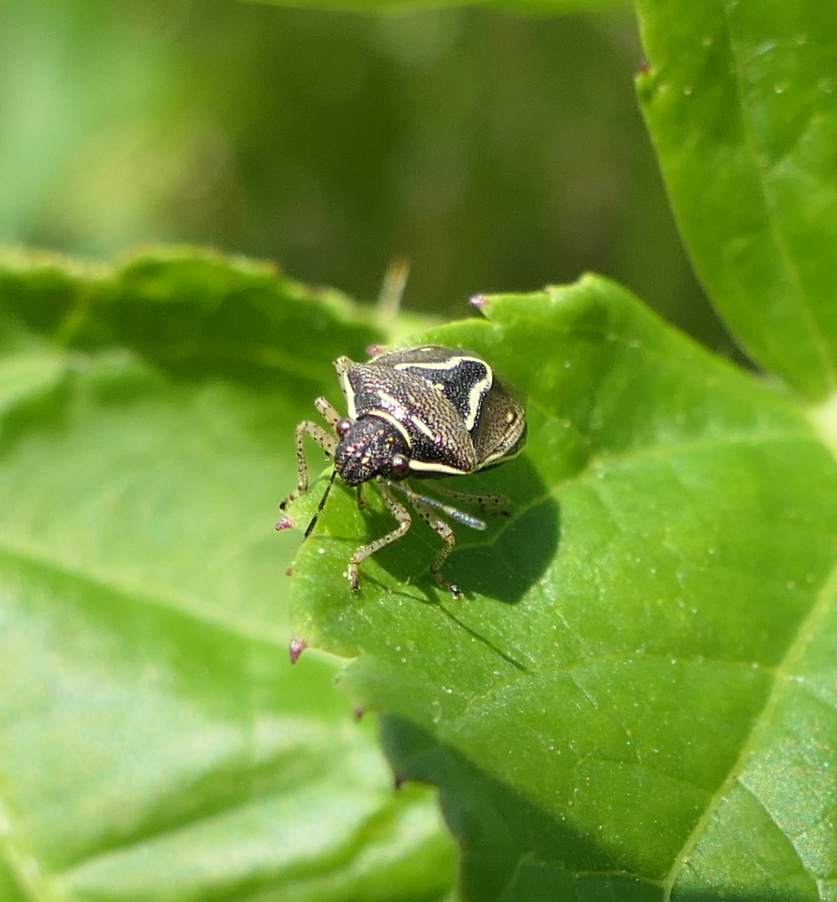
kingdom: Animalia
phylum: Arthropoda
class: Insecta
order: Hemiptera
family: Pentatomidae
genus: Mormidea
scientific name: Mormidea lugens
